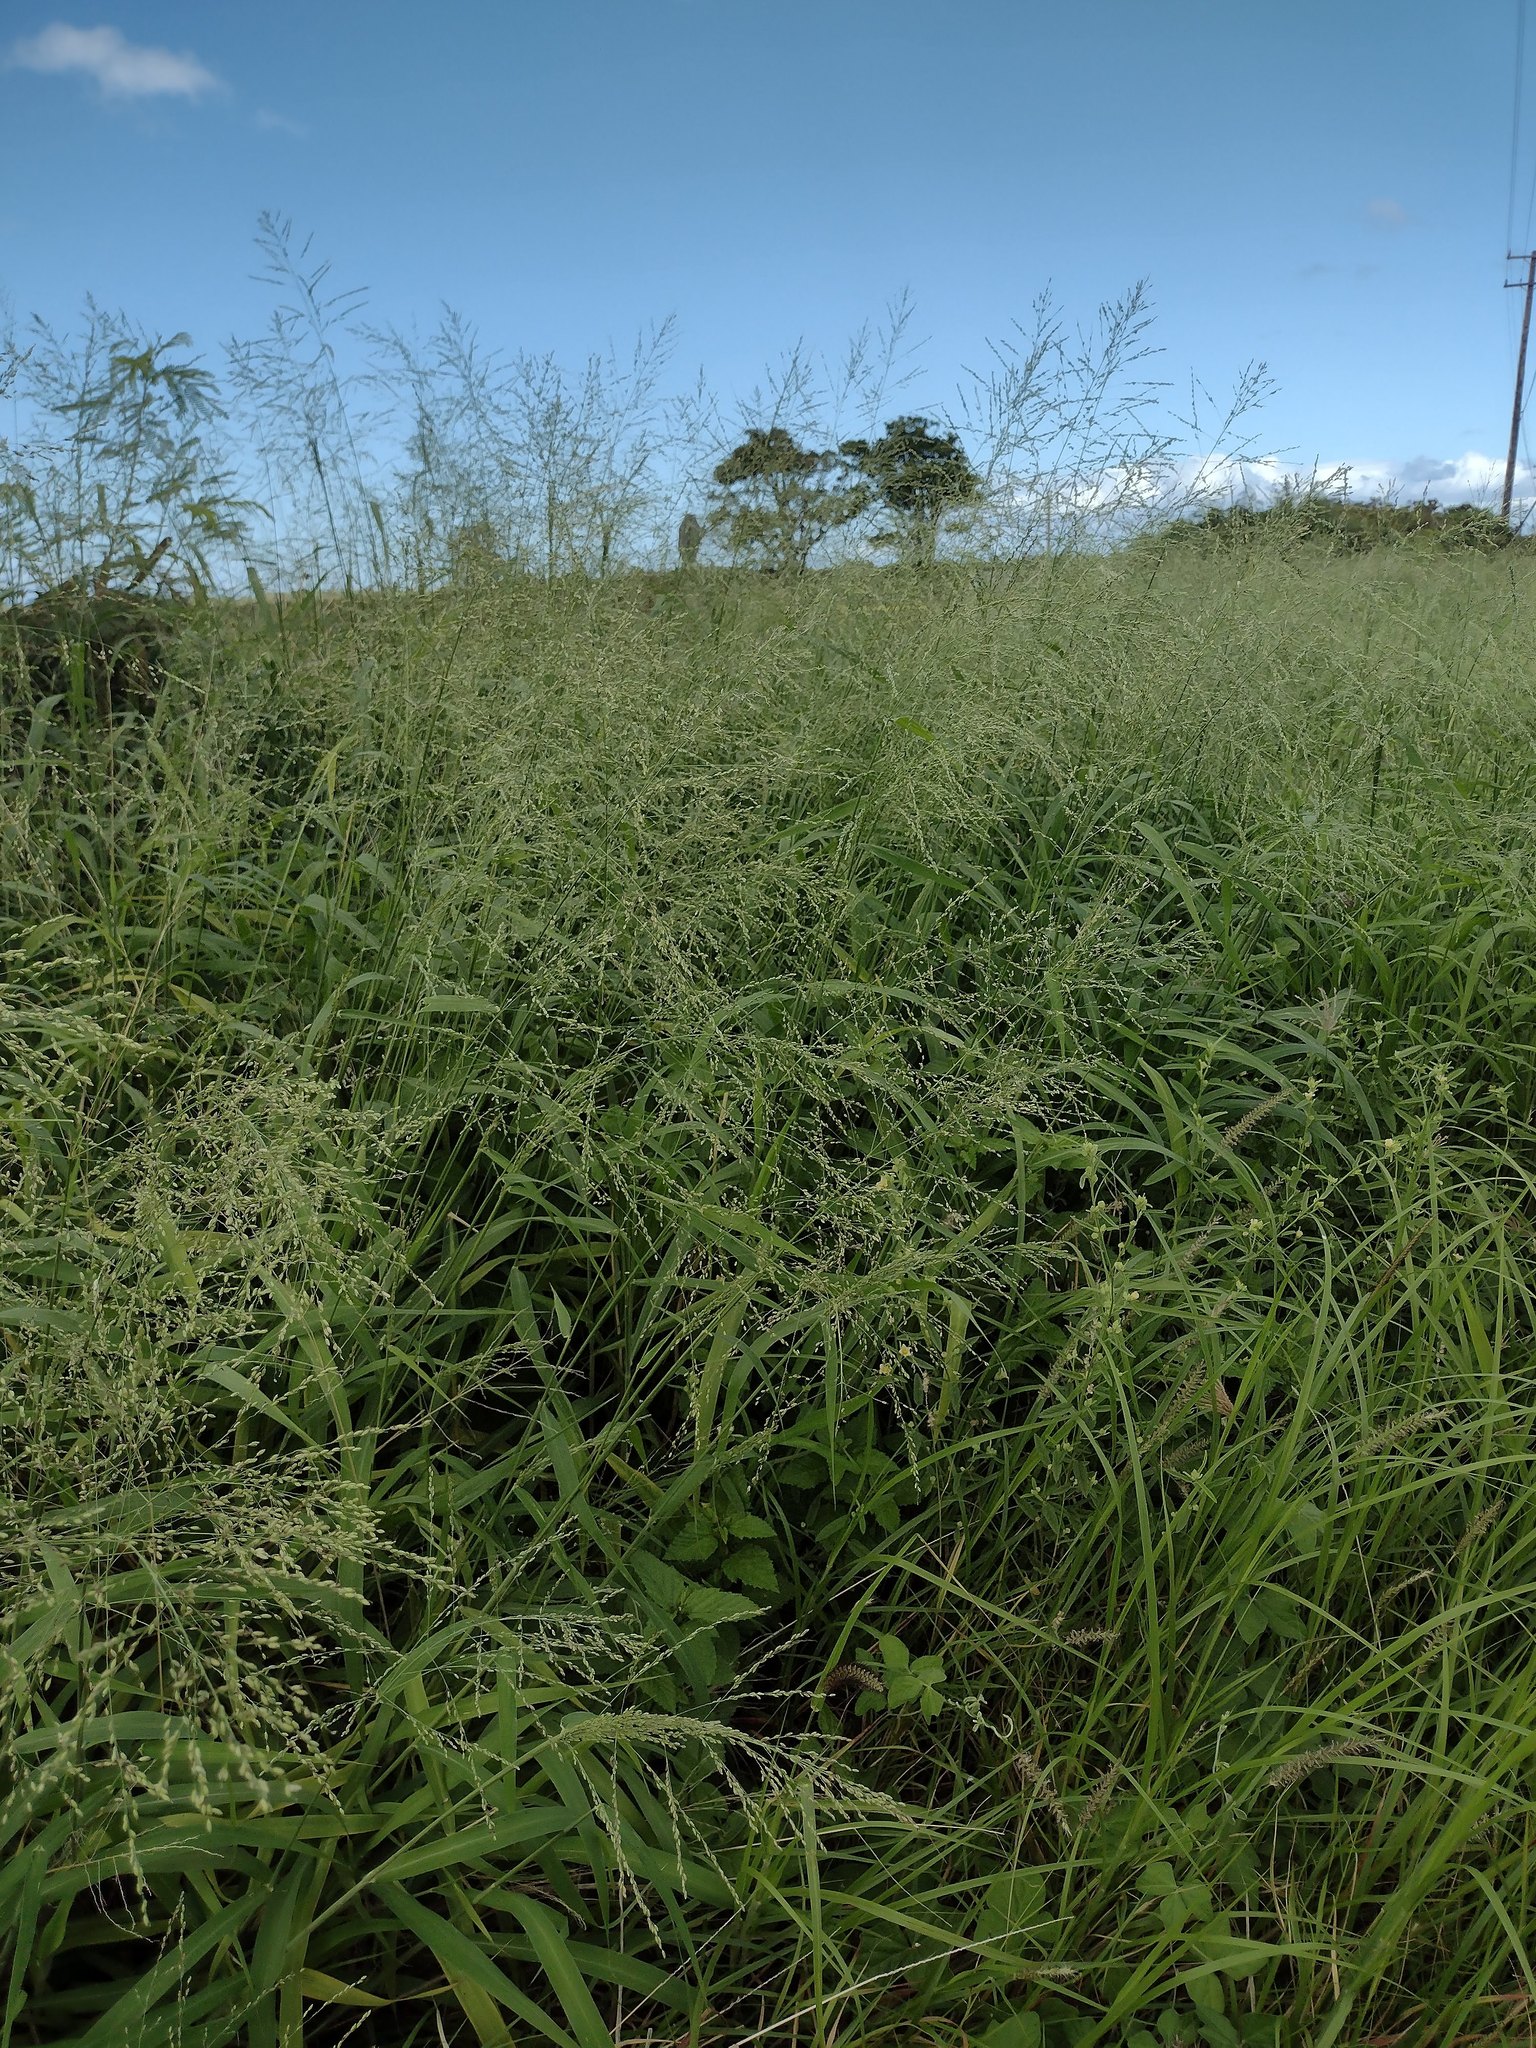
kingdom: Plantae
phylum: Tracheophyta
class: Liliopsida
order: Poales
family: Poaceae
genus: Megathyrsus
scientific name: Megathyrsus maximus
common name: Guineagrass
